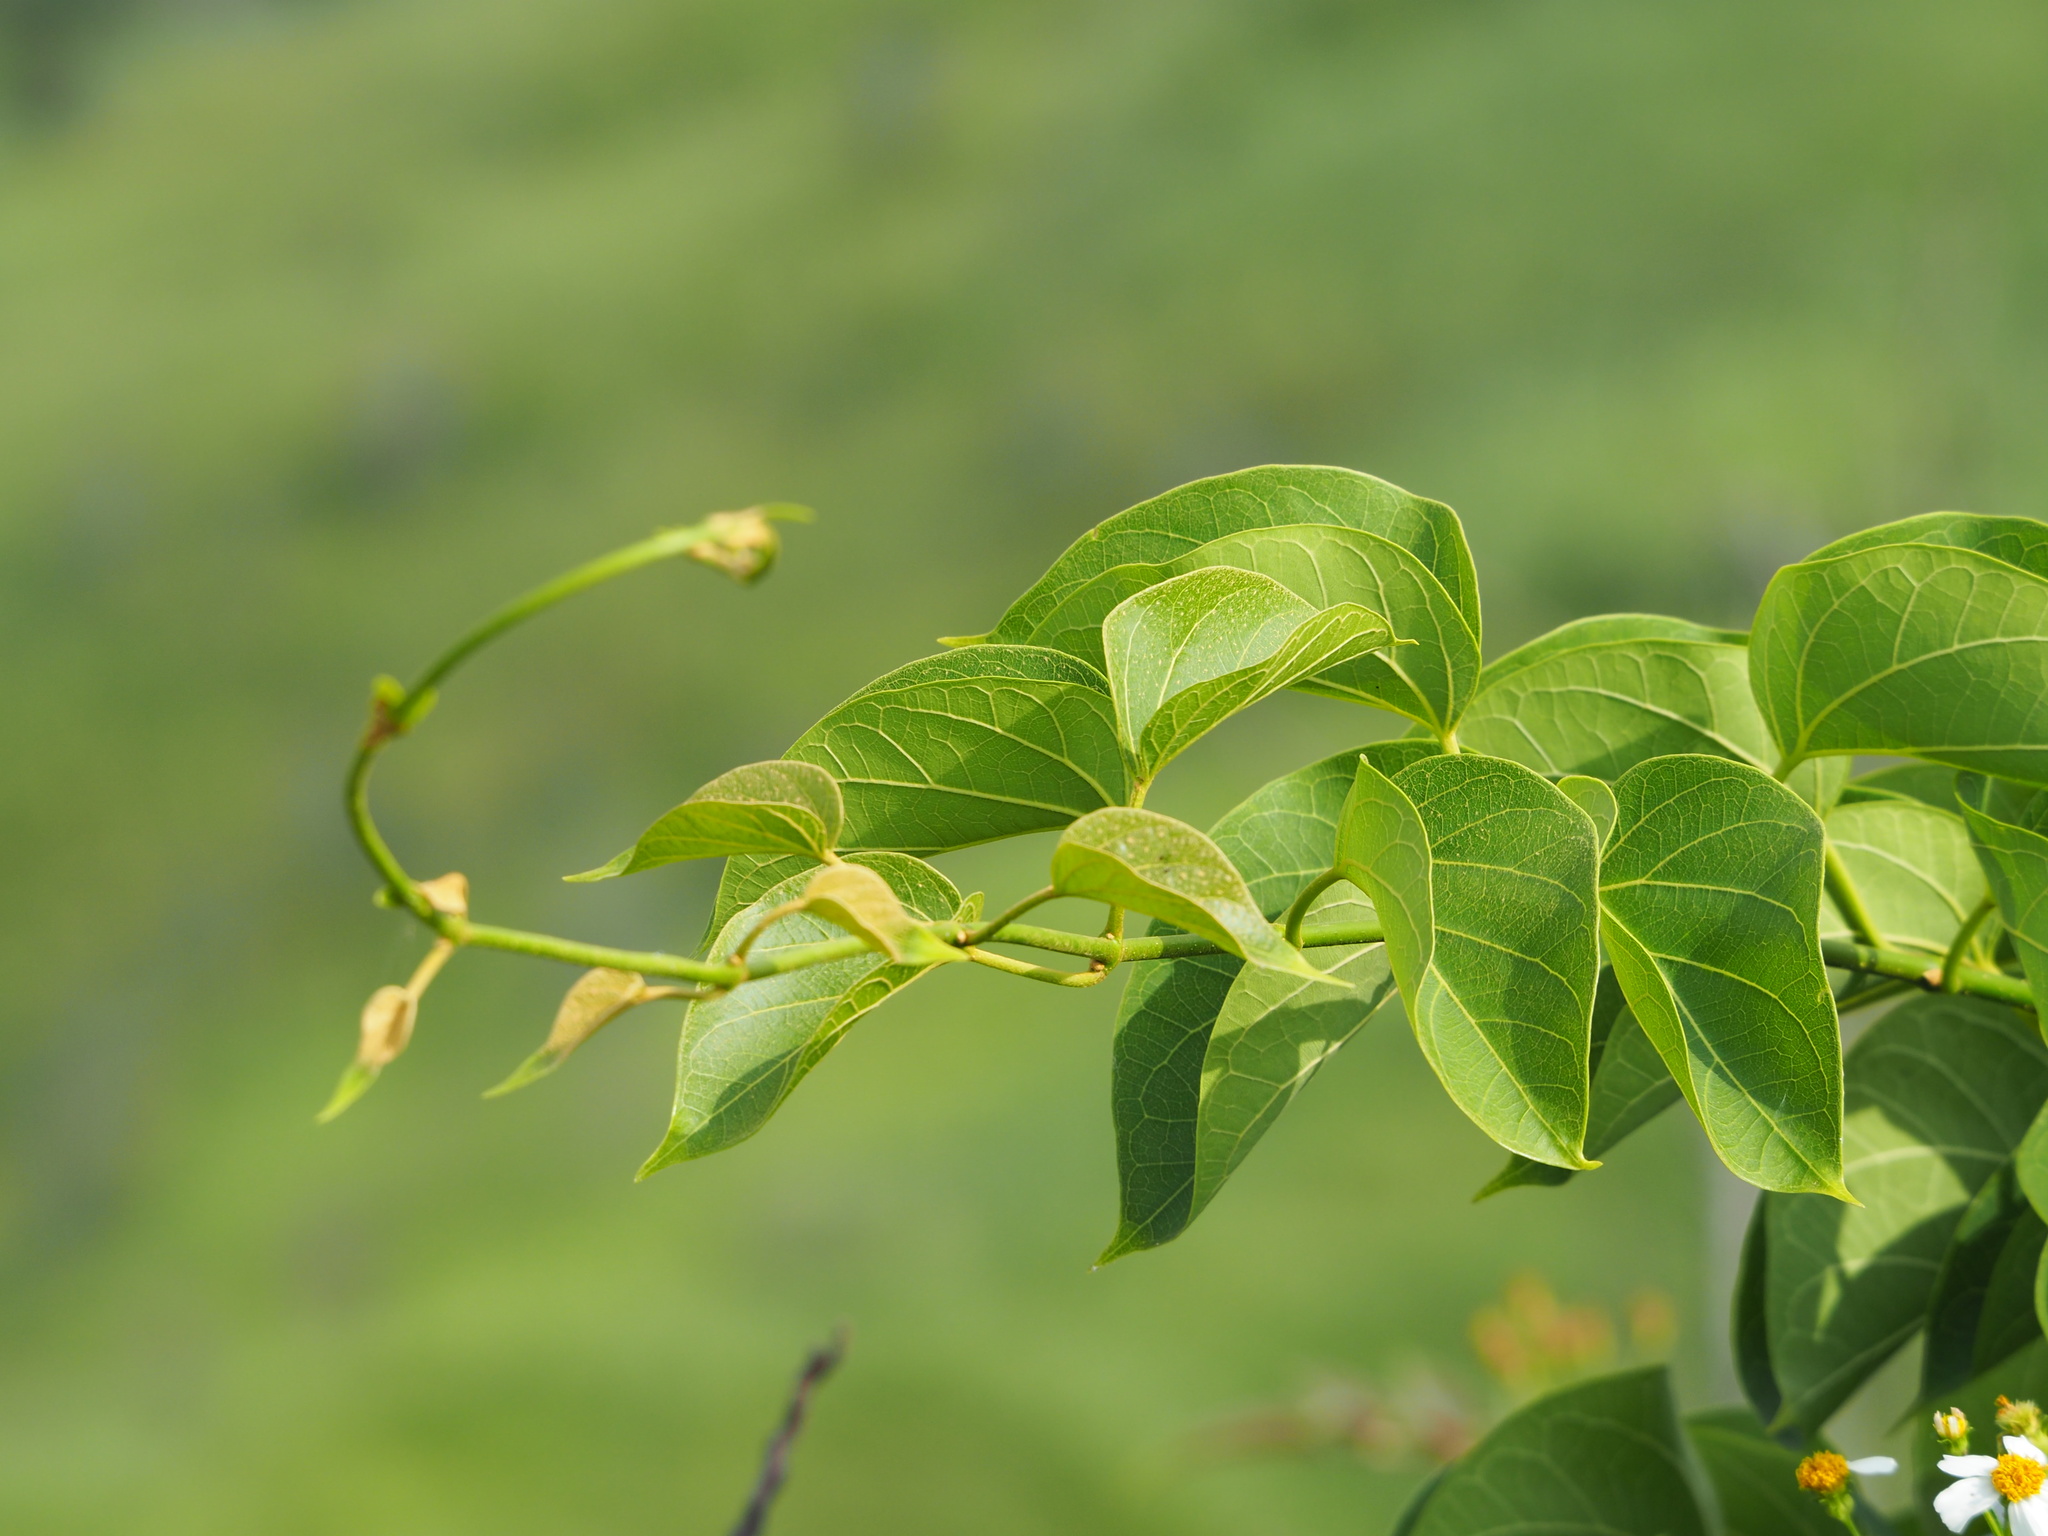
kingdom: Plantae
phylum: Tracheophyta
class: Magnoliopsida
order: Gentianales
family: Apocynaceae
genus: Stephanotis
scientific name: Stephanotis volubilis
